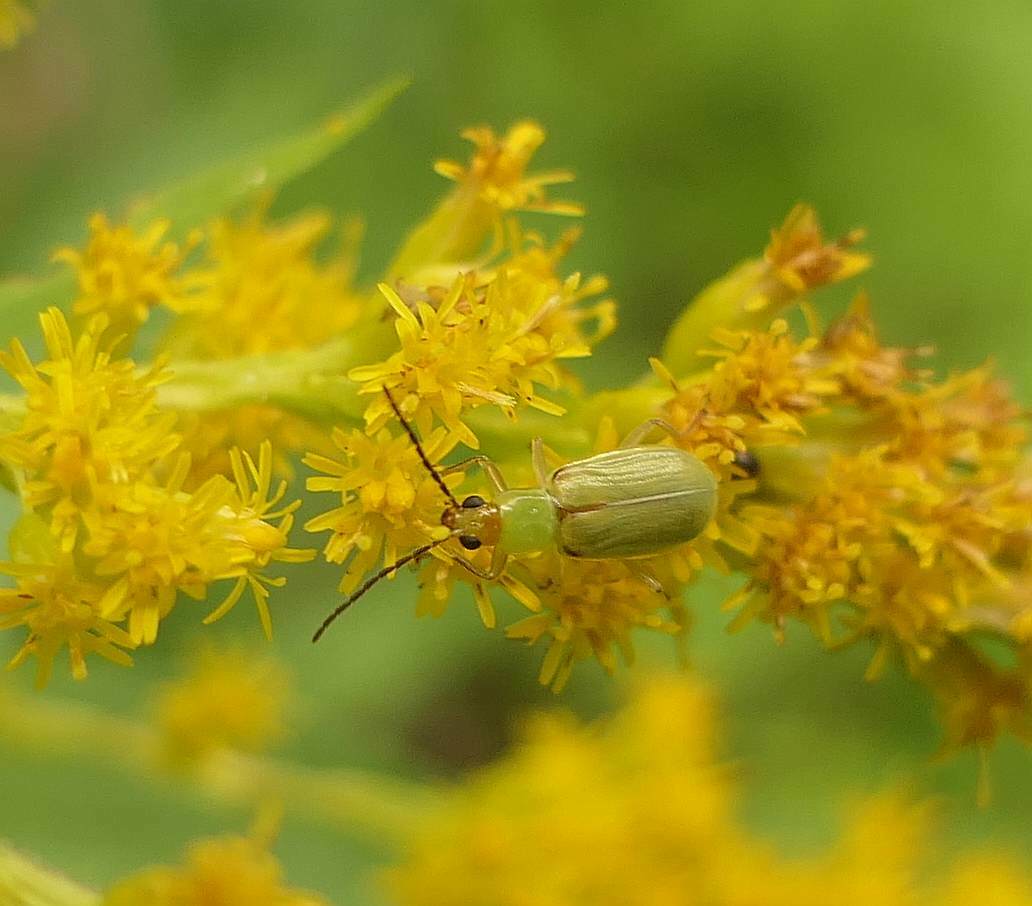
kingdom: Animalia
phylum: Arthropoda
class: Insecta
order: Coleoptera
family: Chrysomelidae
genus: Diabrotica
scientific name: Diabrotica barberi
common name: Northern corn rootworm
